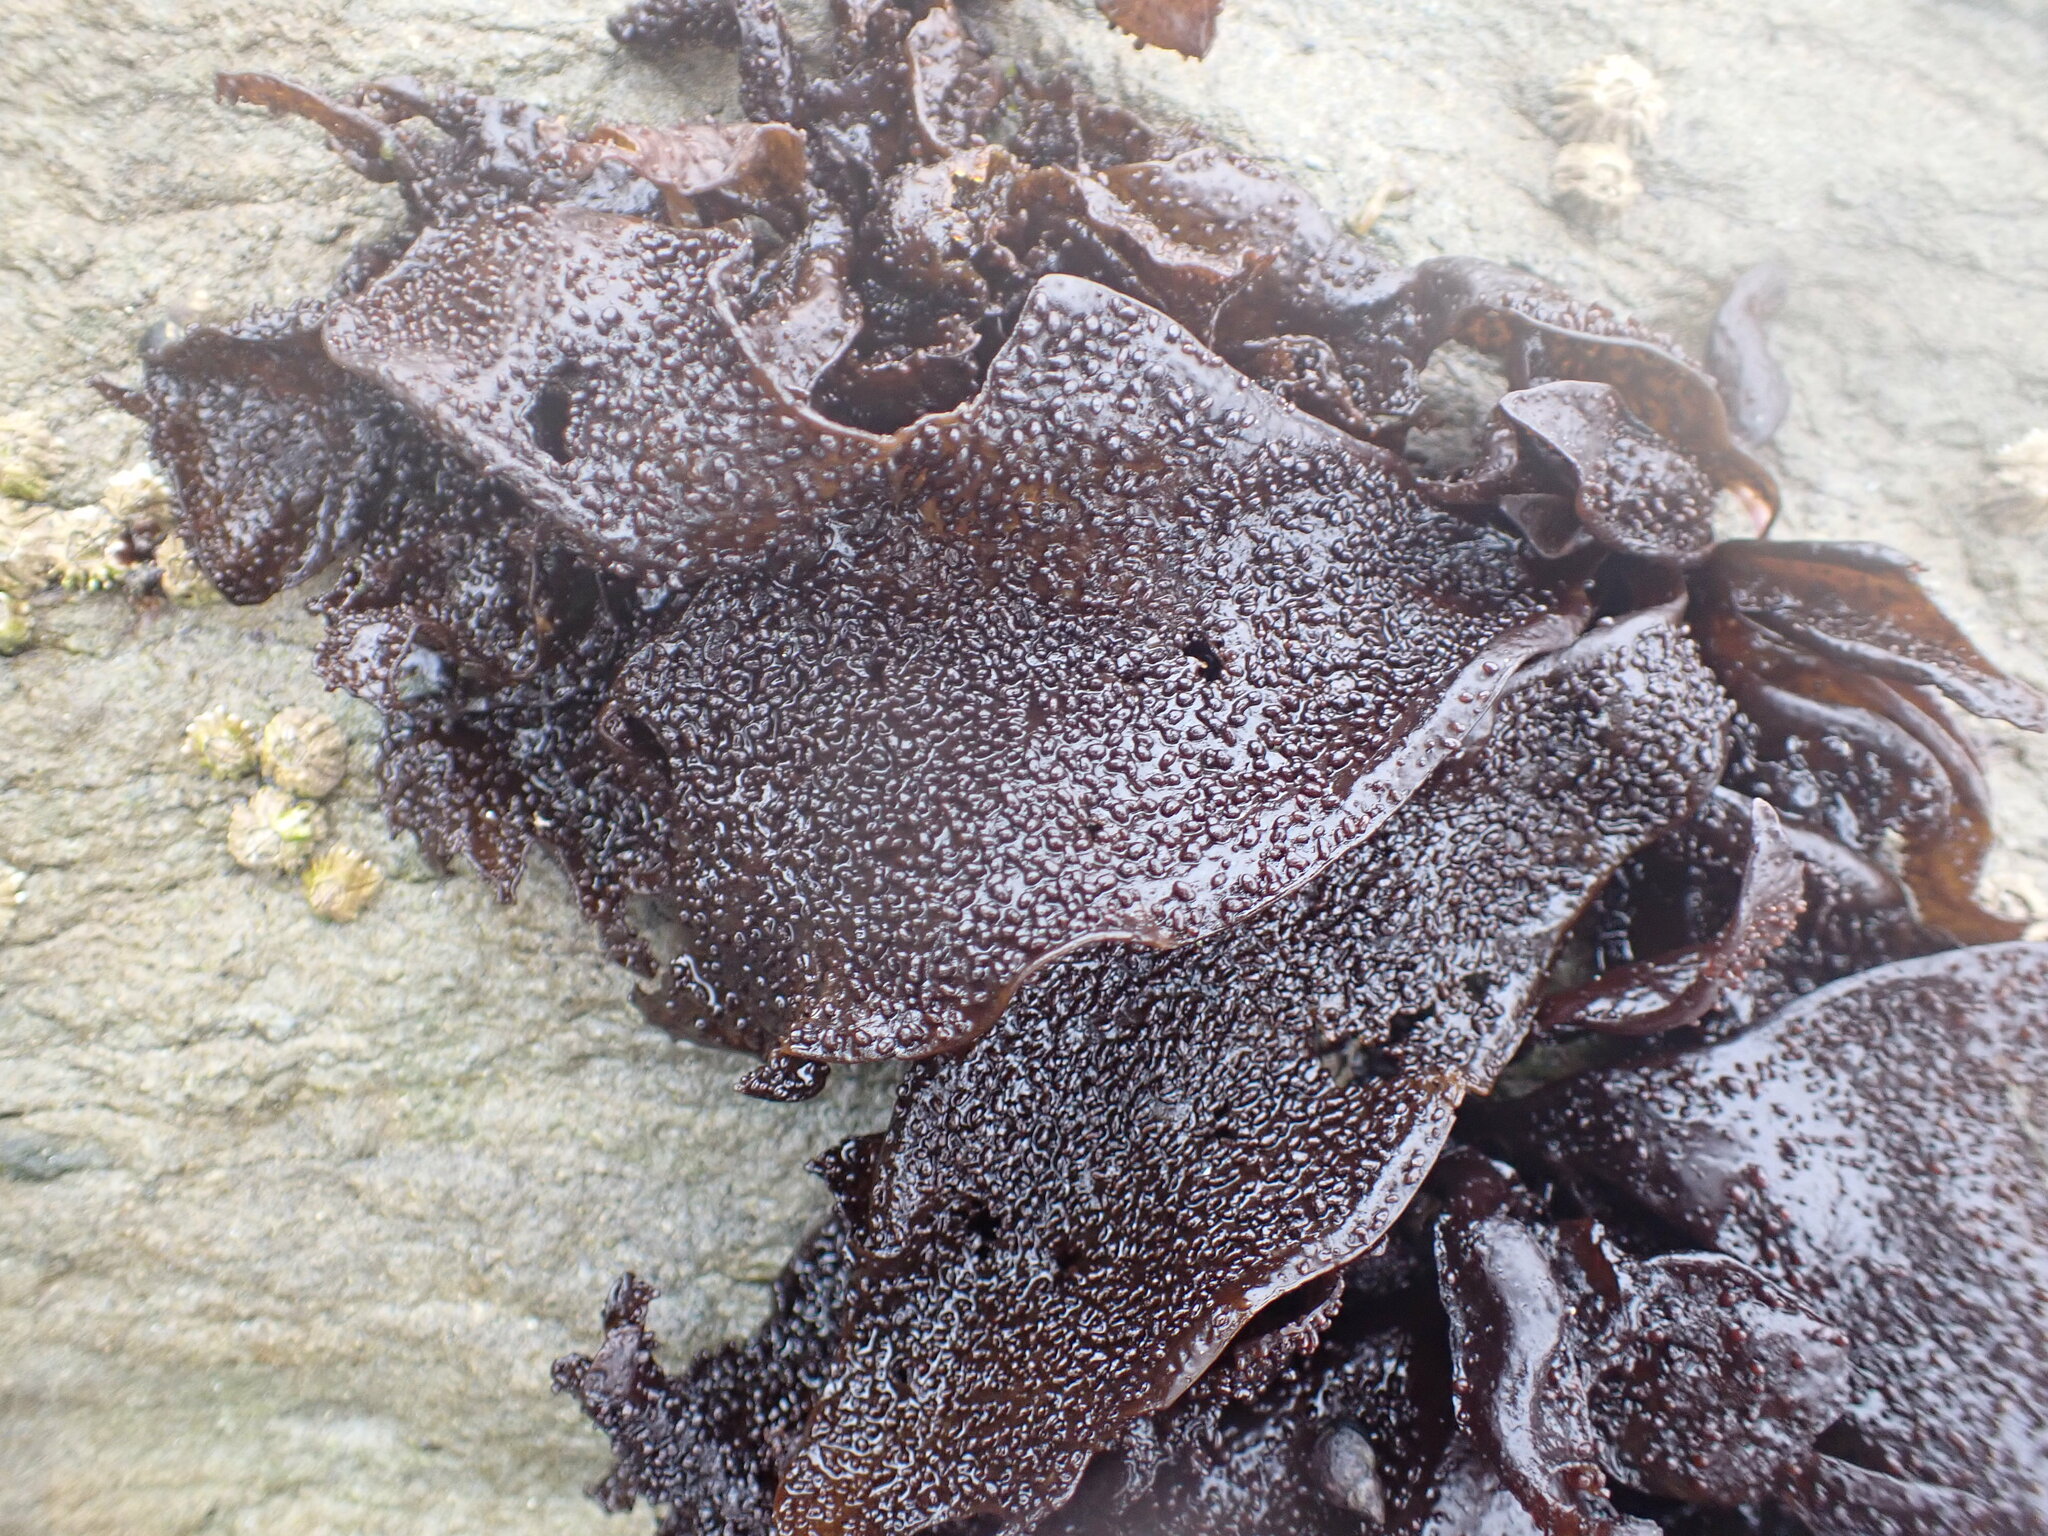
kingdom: Plantae
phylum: Rhodophyta
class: Florideophyceae
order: Gigartinales
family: Phyllophoraceae
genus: Mastocarpus
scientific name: Mastocarpus papillatus
